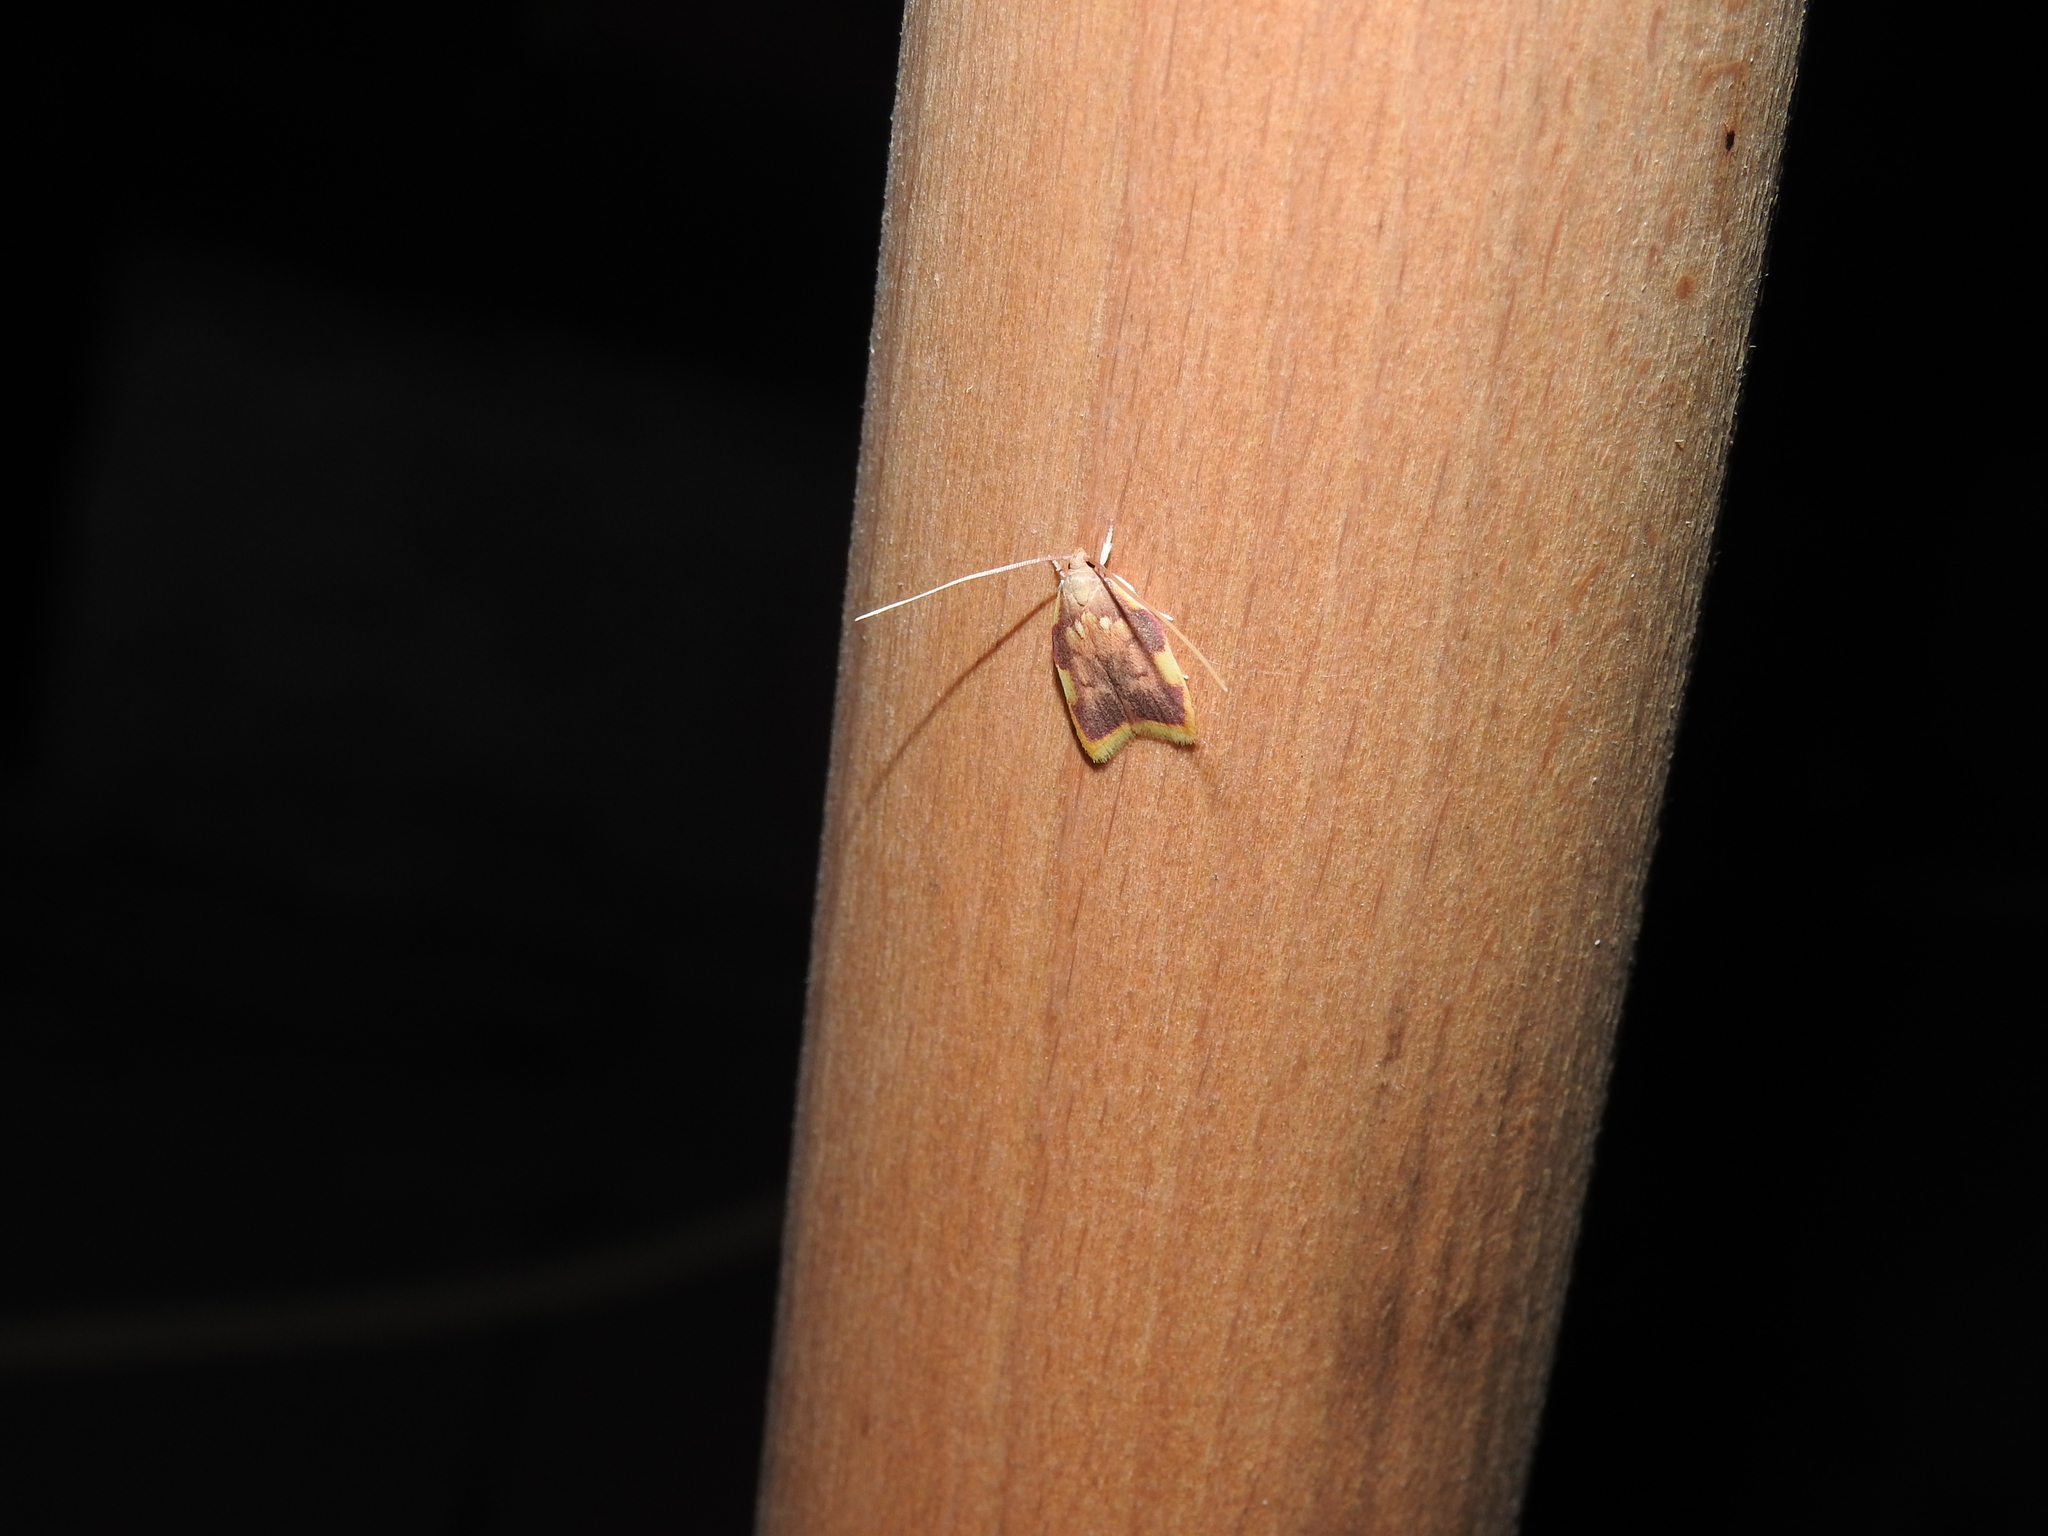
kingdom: Animalia
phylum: Arthropoda
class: Insecta
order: Lepidoptera
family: Peleopodidae
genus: Carcina
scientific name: Carcina quercana
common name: Moth
